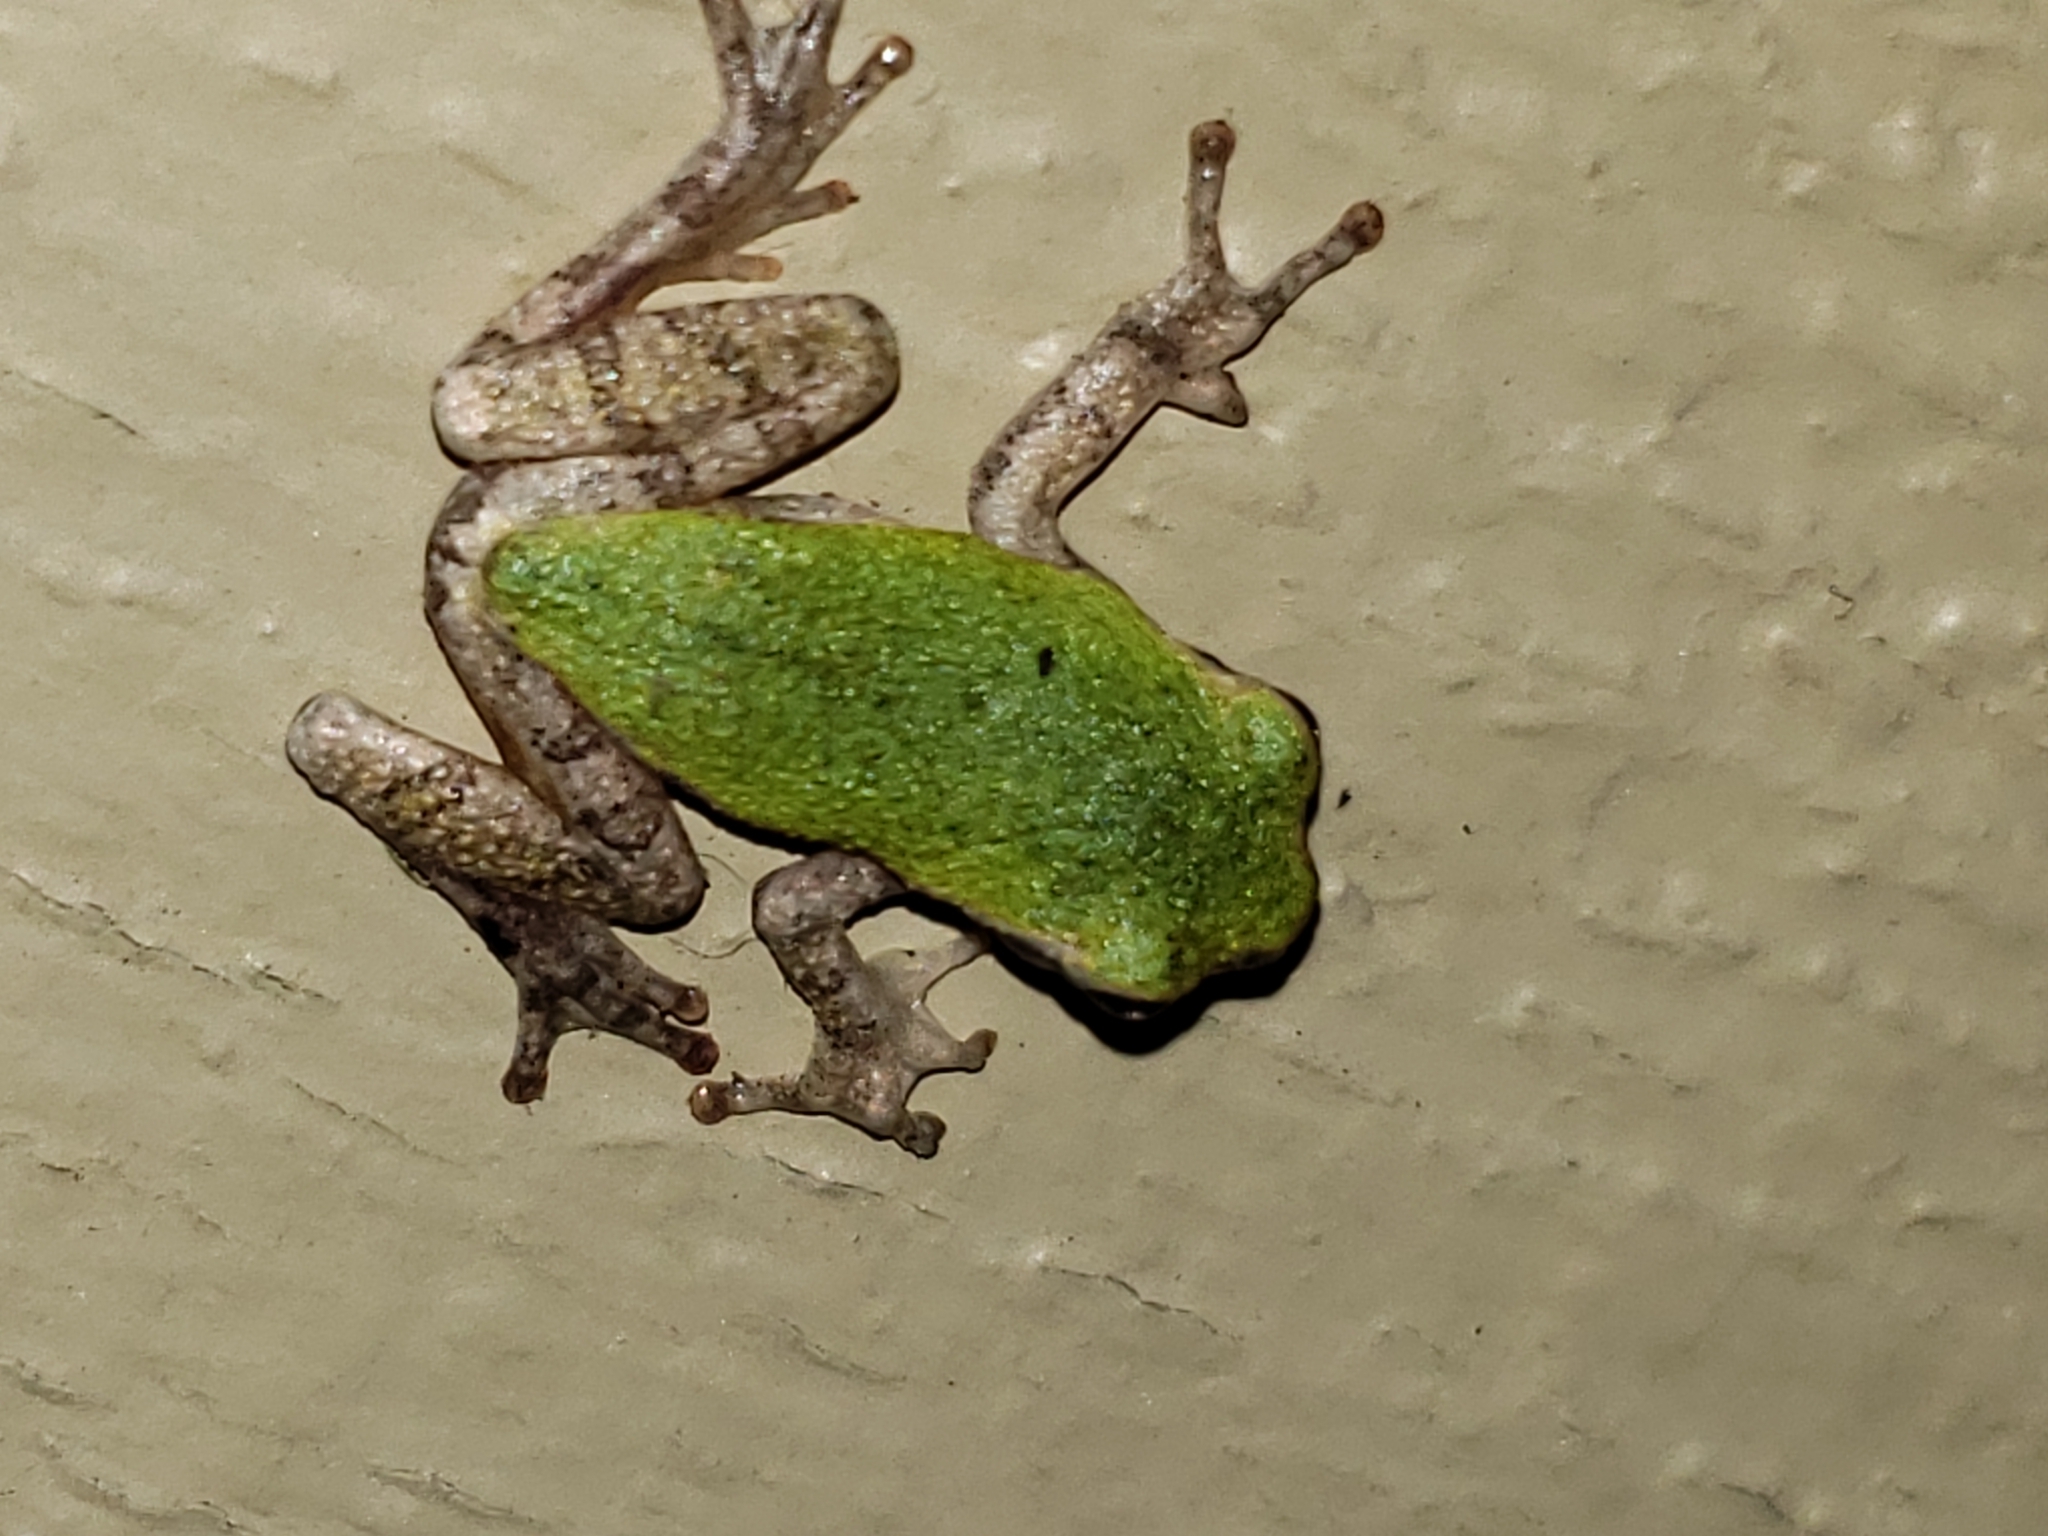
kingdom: Animalia
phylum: Chordata
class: Amphibia
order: Anura
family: Hylidae
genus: Hyla
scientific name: Hyla
